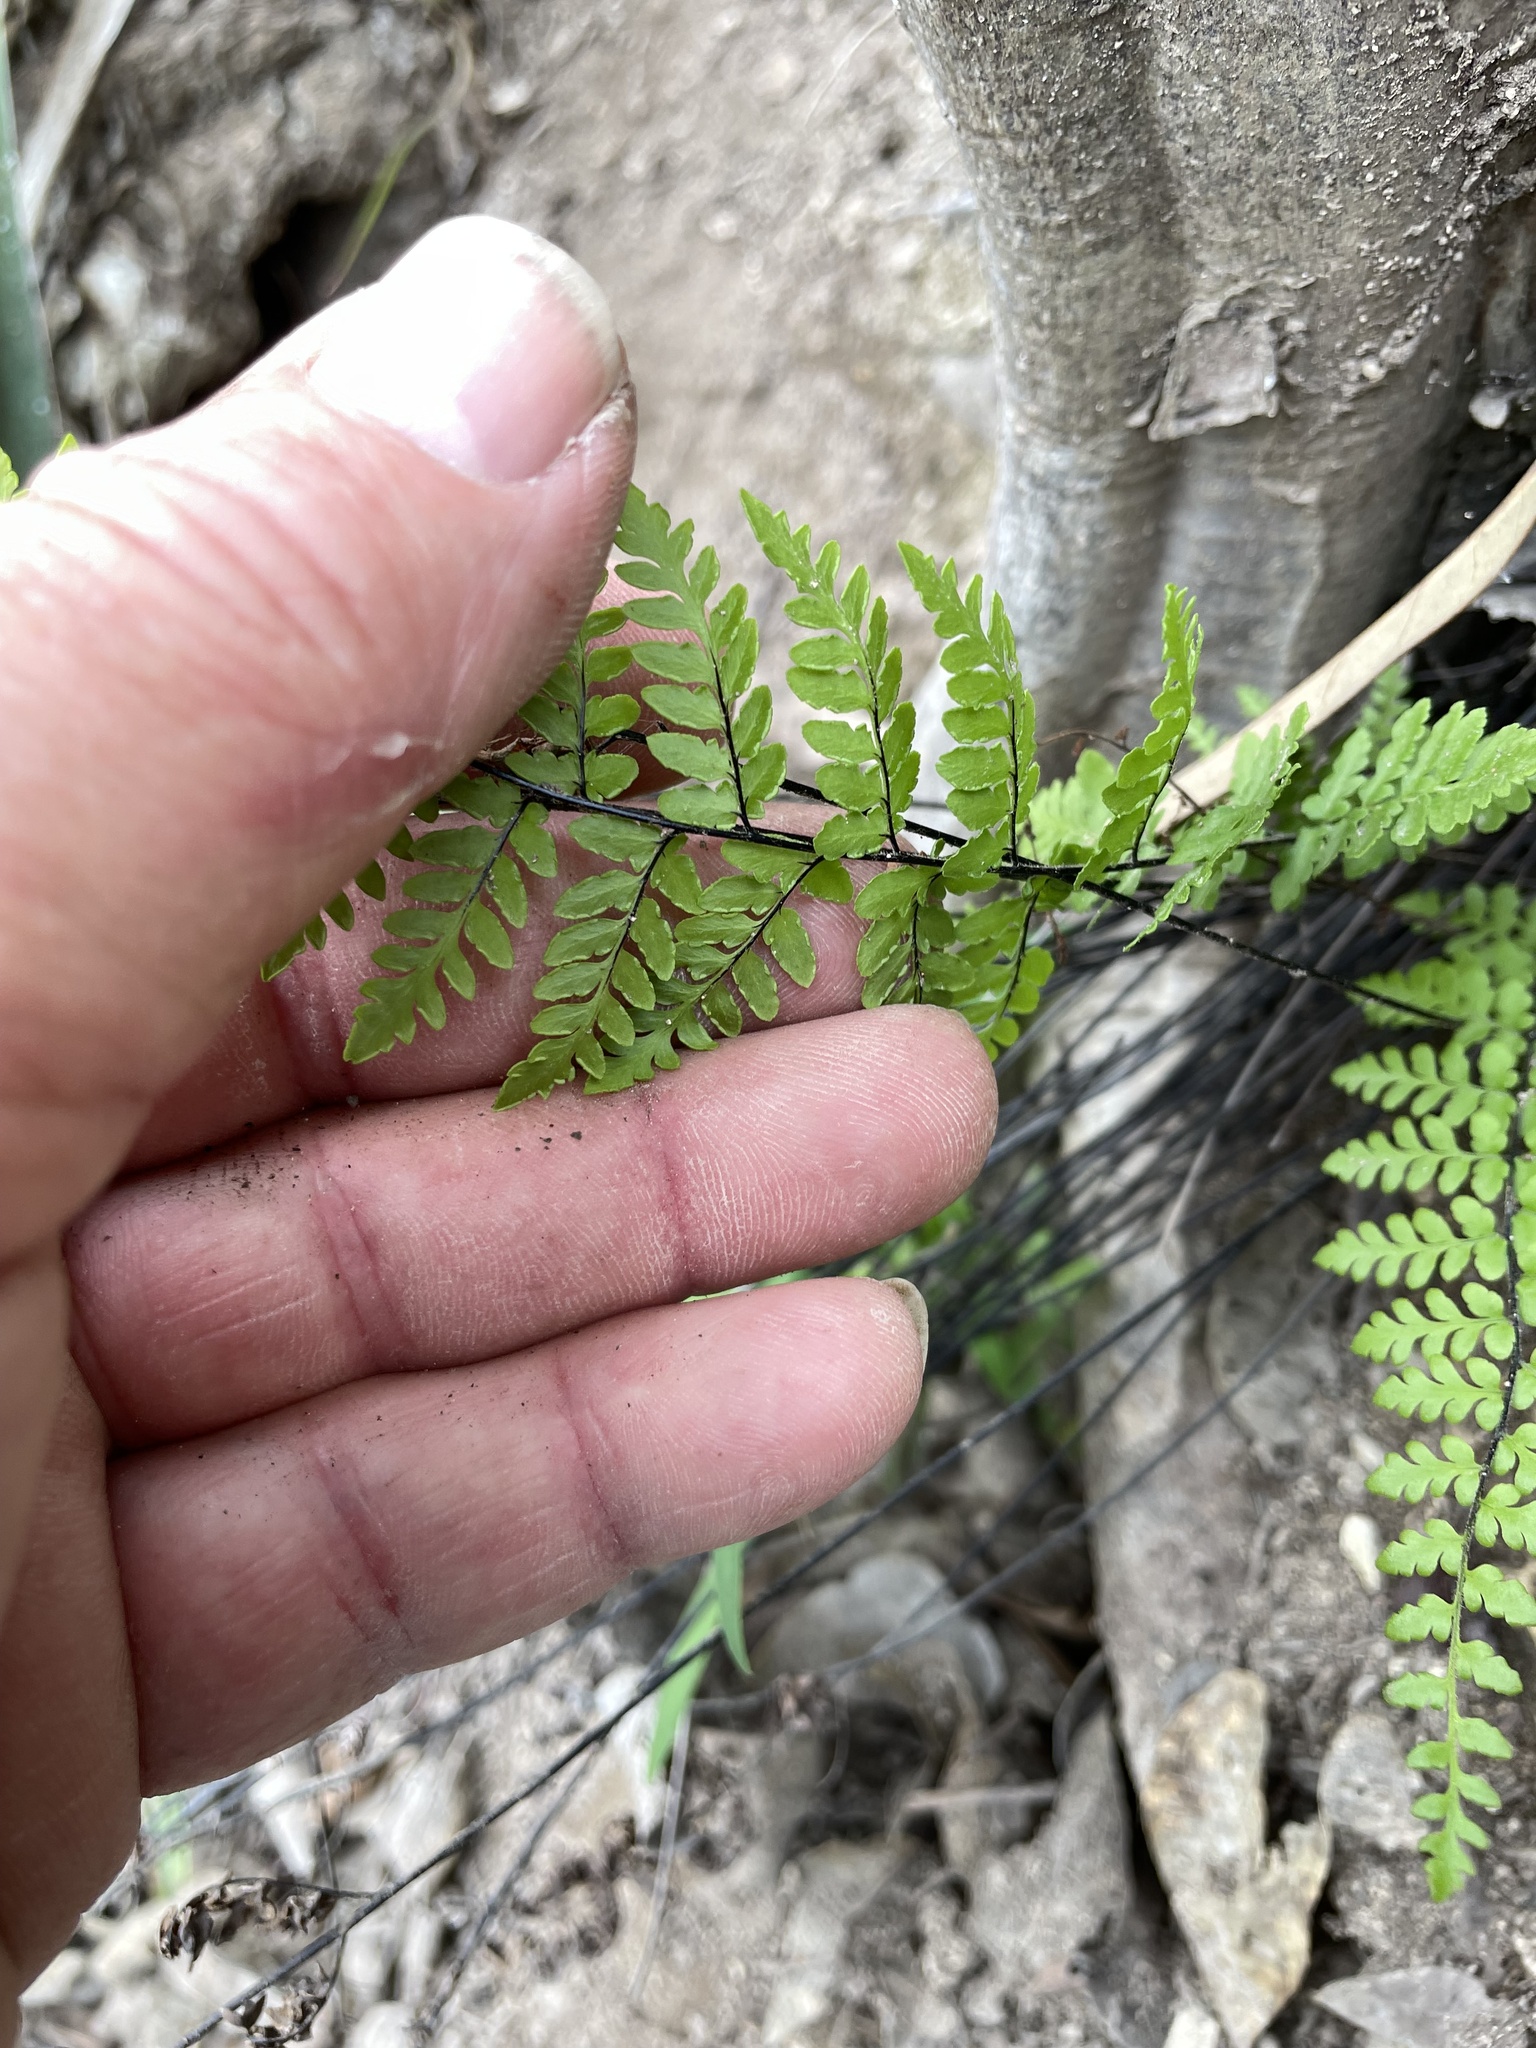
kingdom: Plantae
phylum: Tracheophyta
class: Polypodiopsida
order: Polypodiales
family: Pteridaceae
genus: Myriopteris
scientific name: Myriopteris alabamensis
